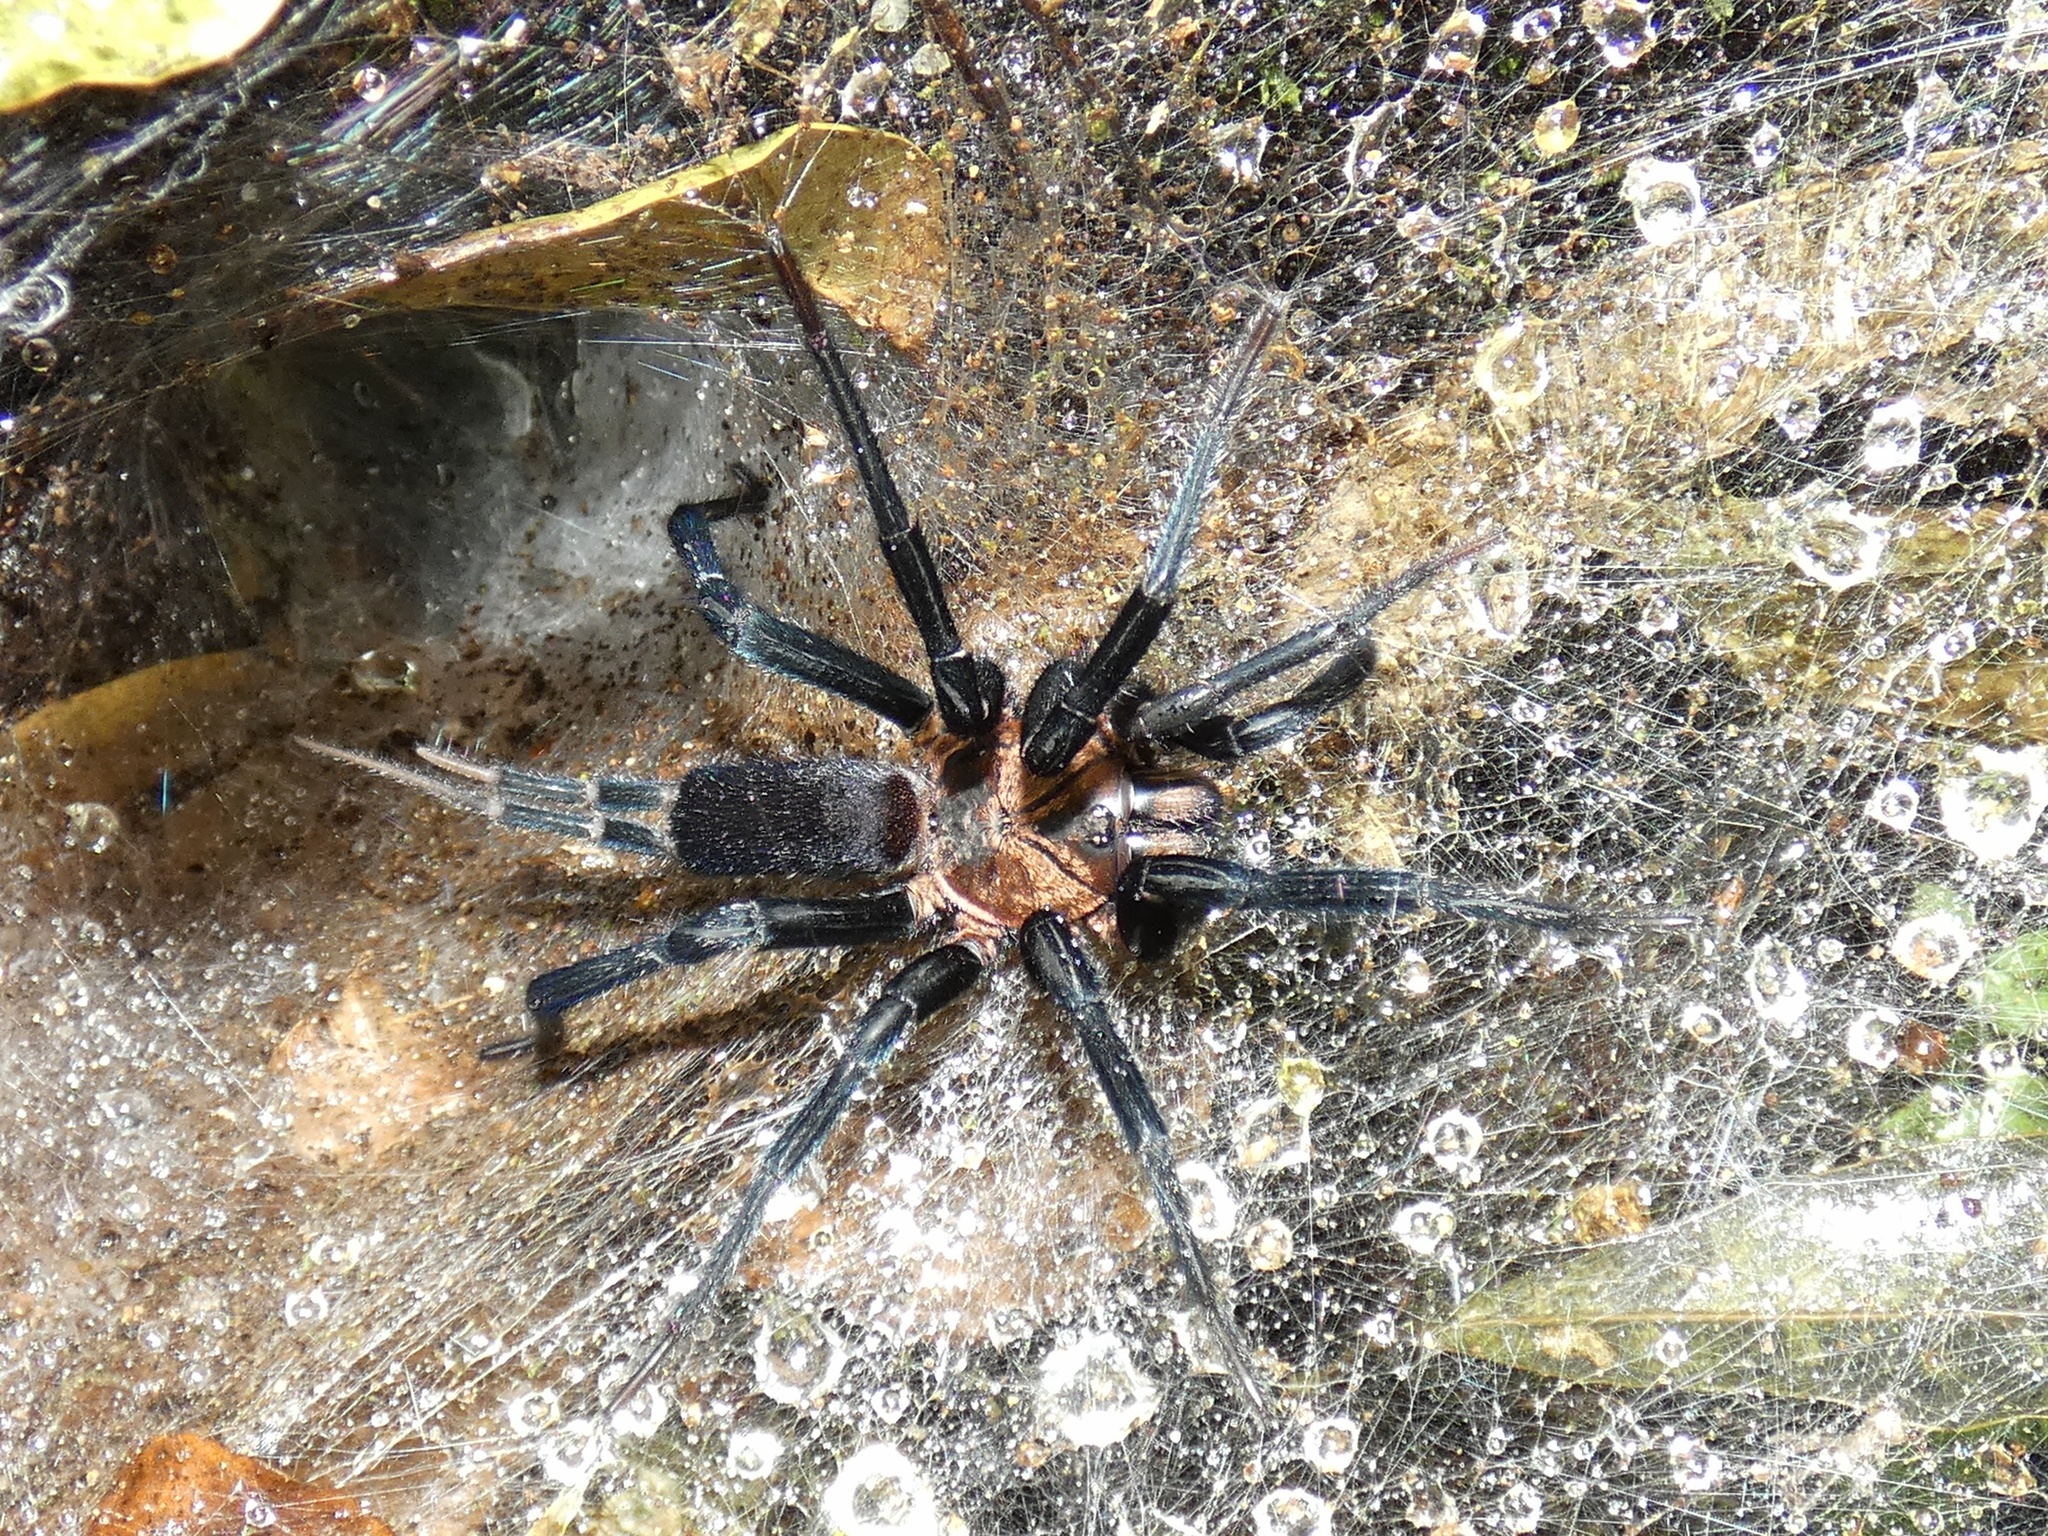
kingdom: Animalia
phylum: Arthropoda
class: Arachnida
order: Araneae
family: Dipluridae
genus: Linothele
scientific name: Linothele sericata
